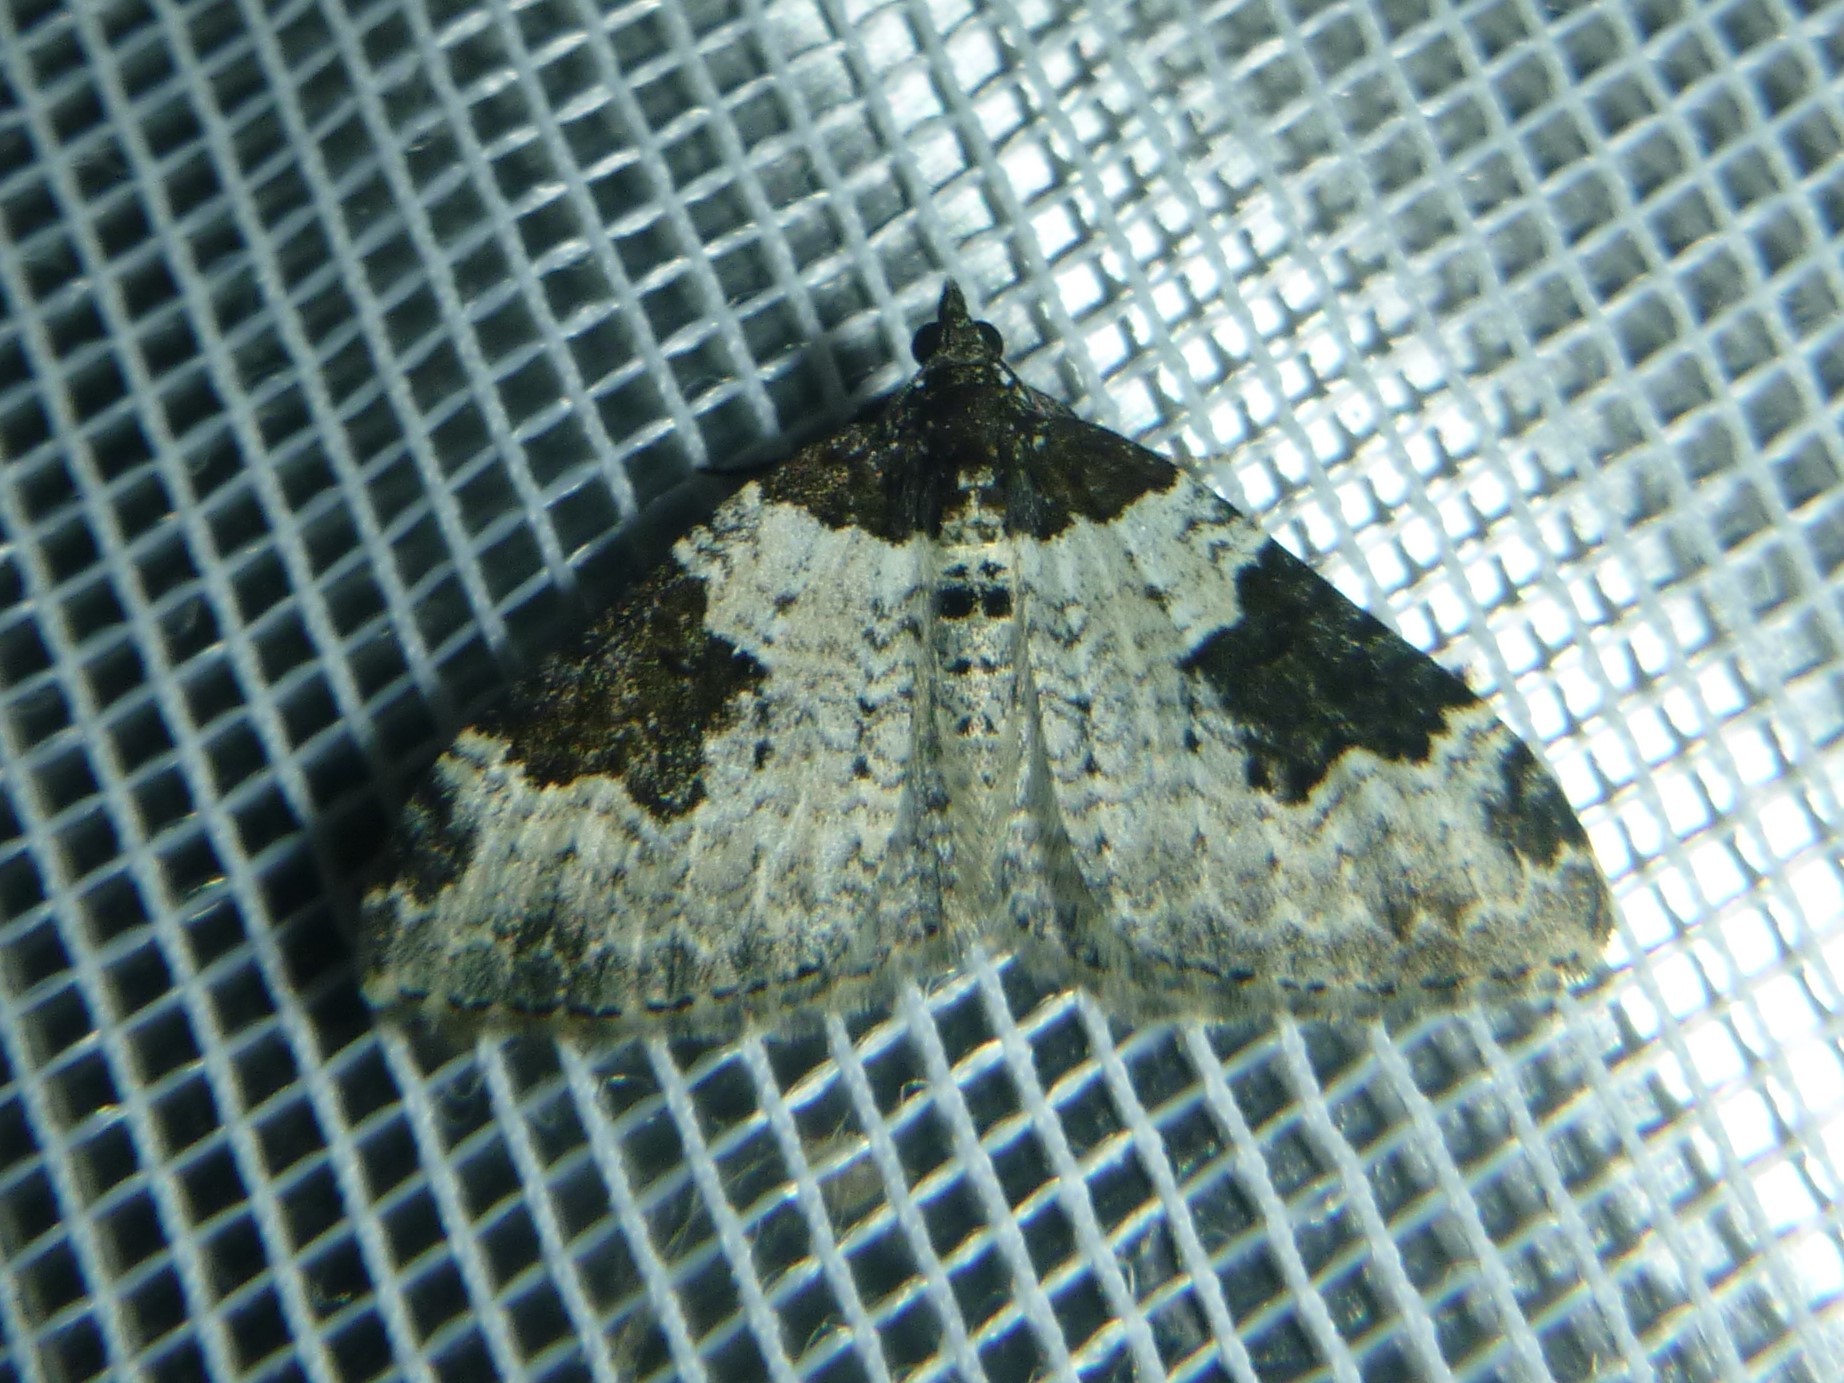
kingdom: Animalia
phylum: Arthropoda
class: Insecta
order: Lepidoptera
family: Geometridae
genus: Xanthorhoe
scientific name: Xanthorhoe fluctuata
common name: Garden carpet
